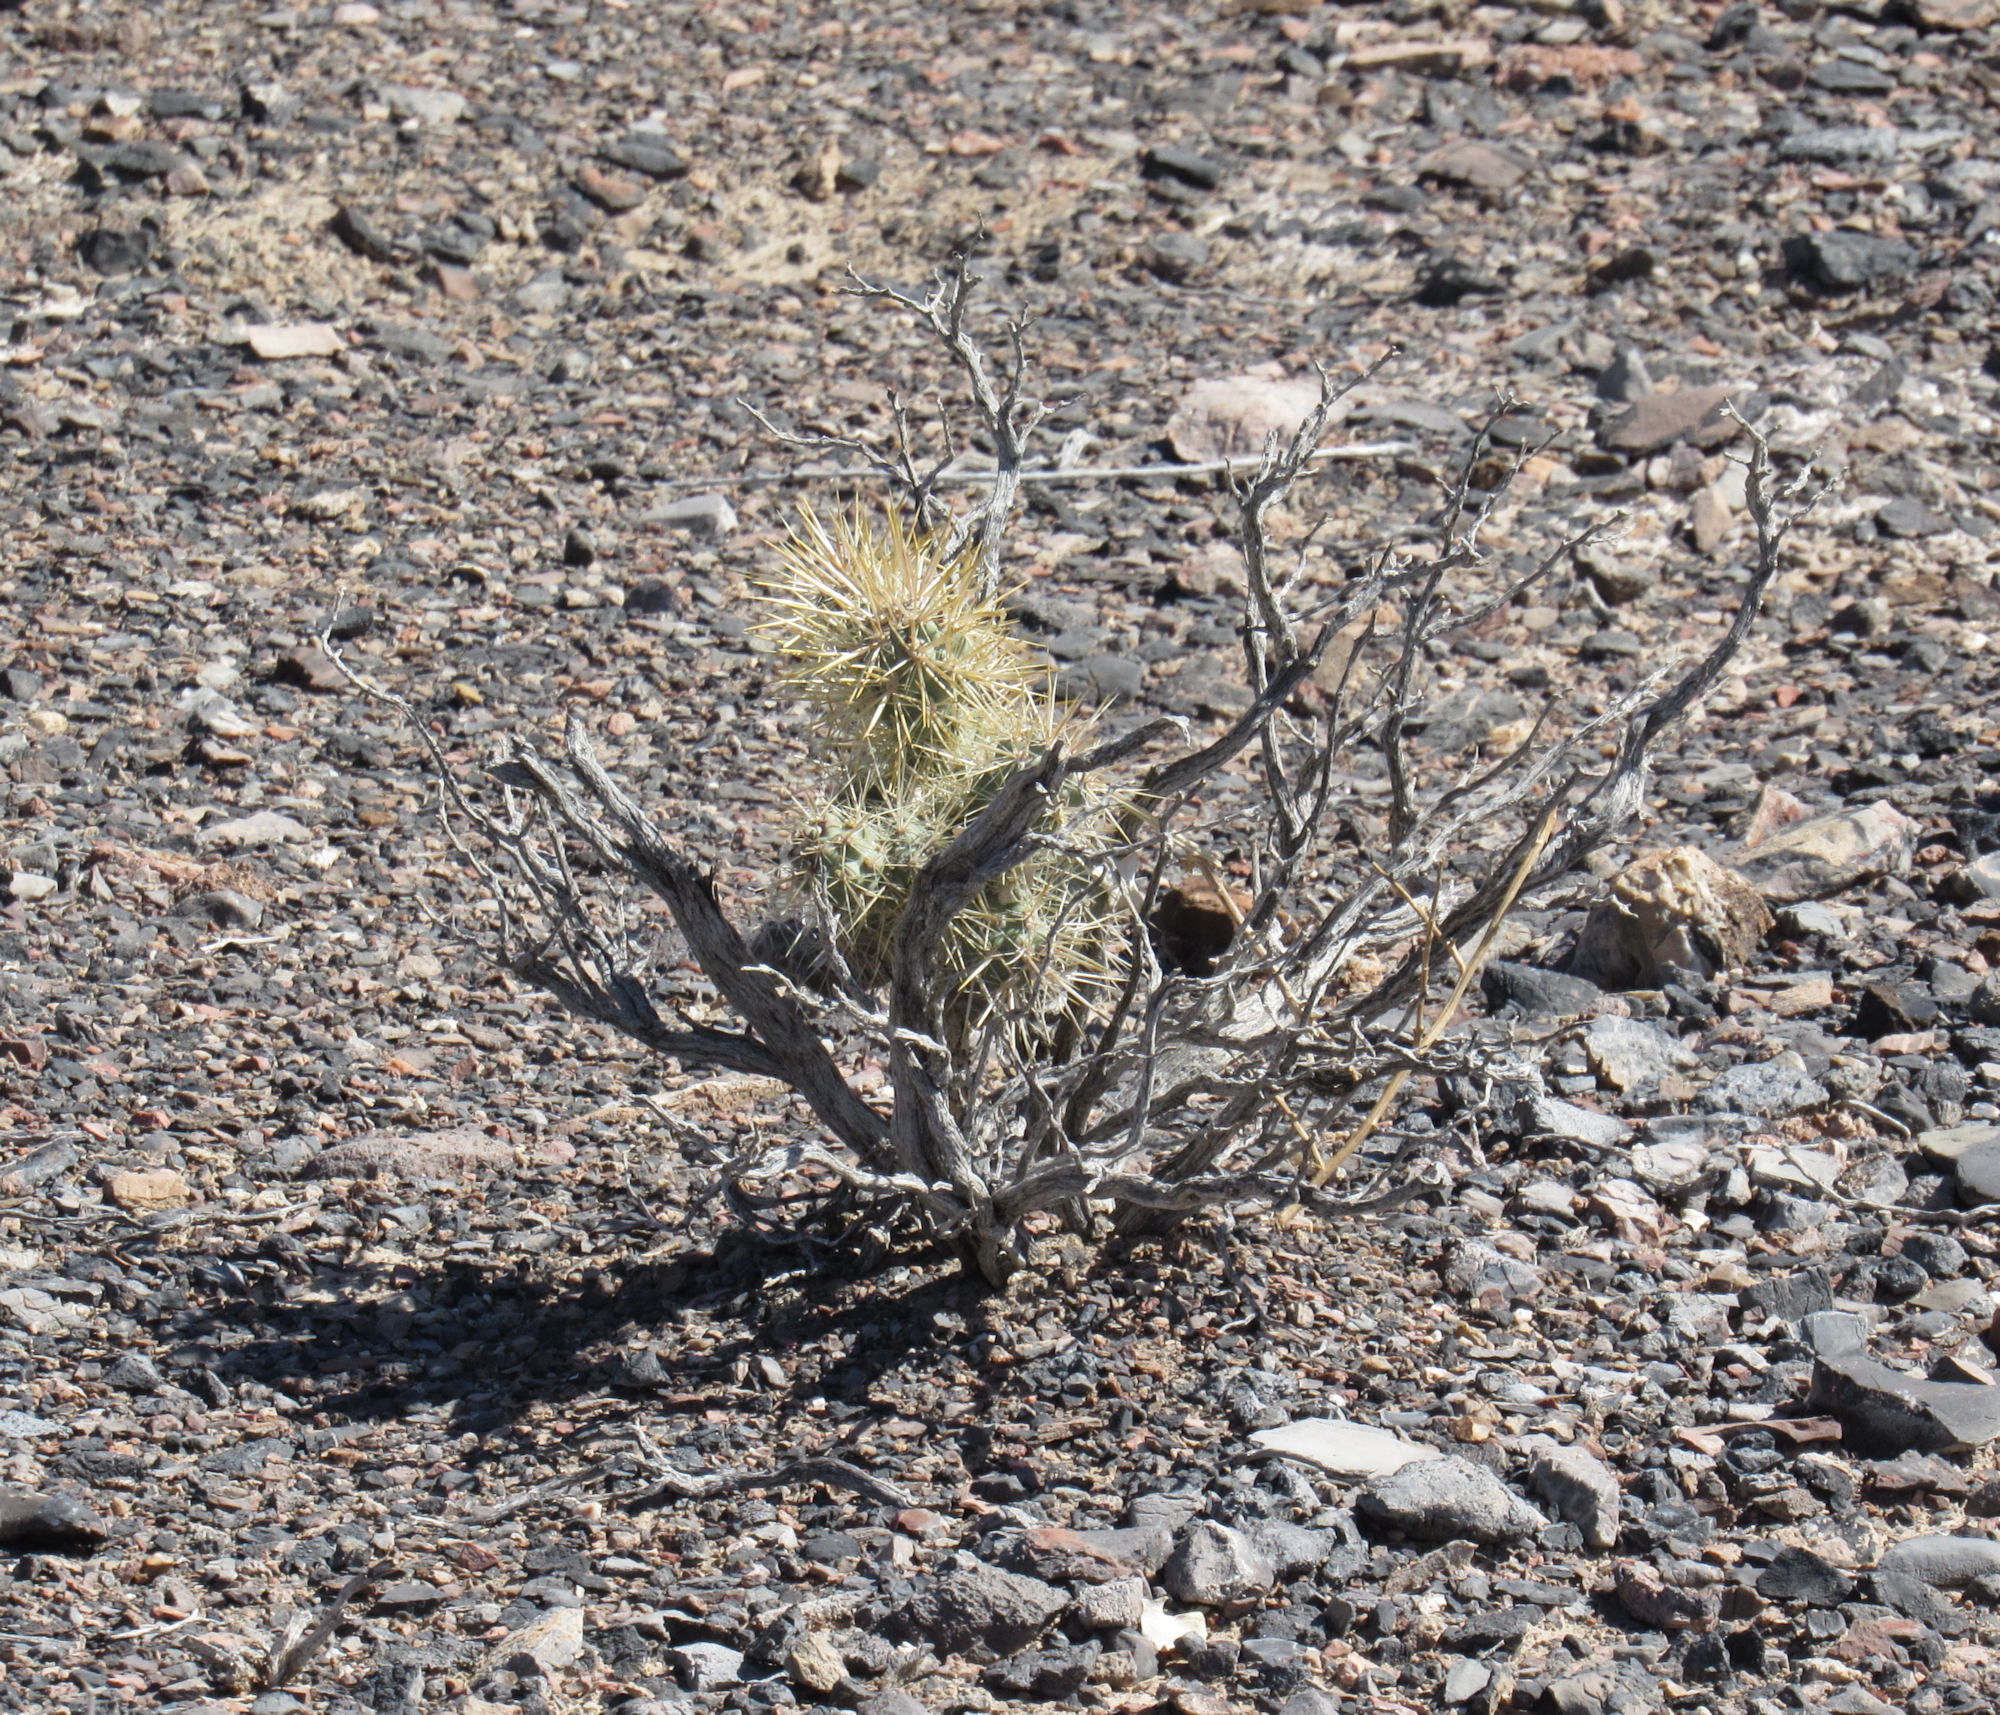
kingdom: Plantae
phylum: Tracheophyta
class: Magnoliopsida
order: Caryophyllales
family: Cactaceae
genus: Cylindropuntia
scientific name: Cylindropuntia echinocarpa
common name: Ground cholla
